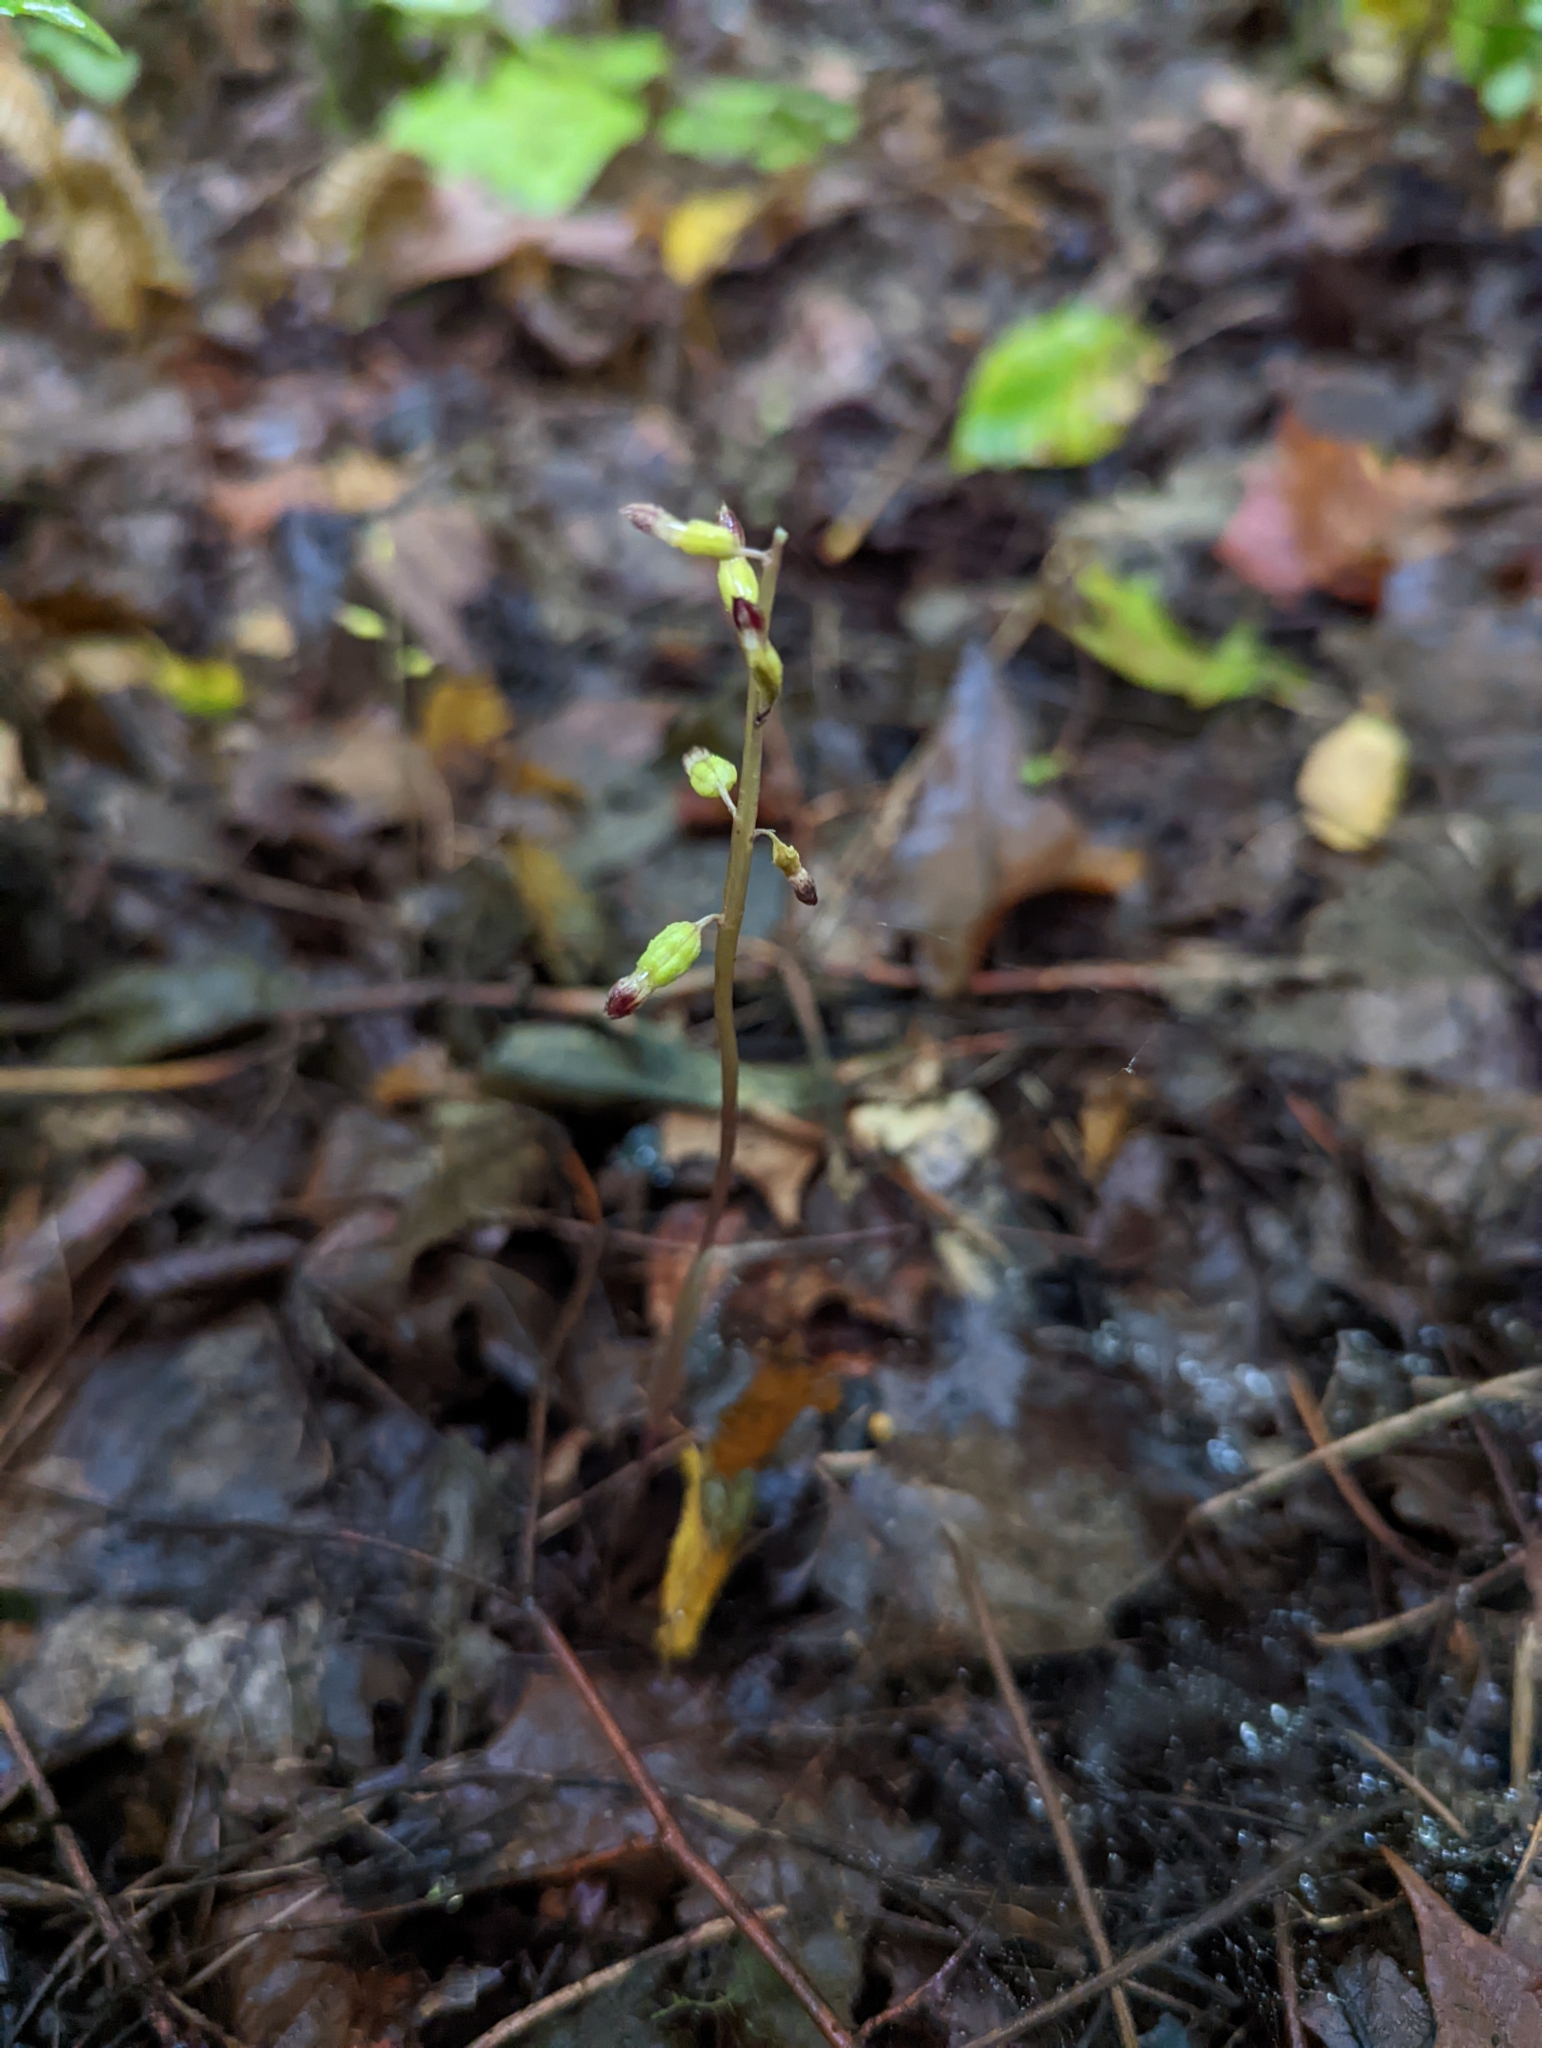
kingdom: Plantae
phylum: Tracheophyta
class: Liliopsida
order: Asparagales
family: Orchidaceae
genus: Corallorhiza
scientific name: Corallorhiza odontorhiza
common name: Autumn coralroot
